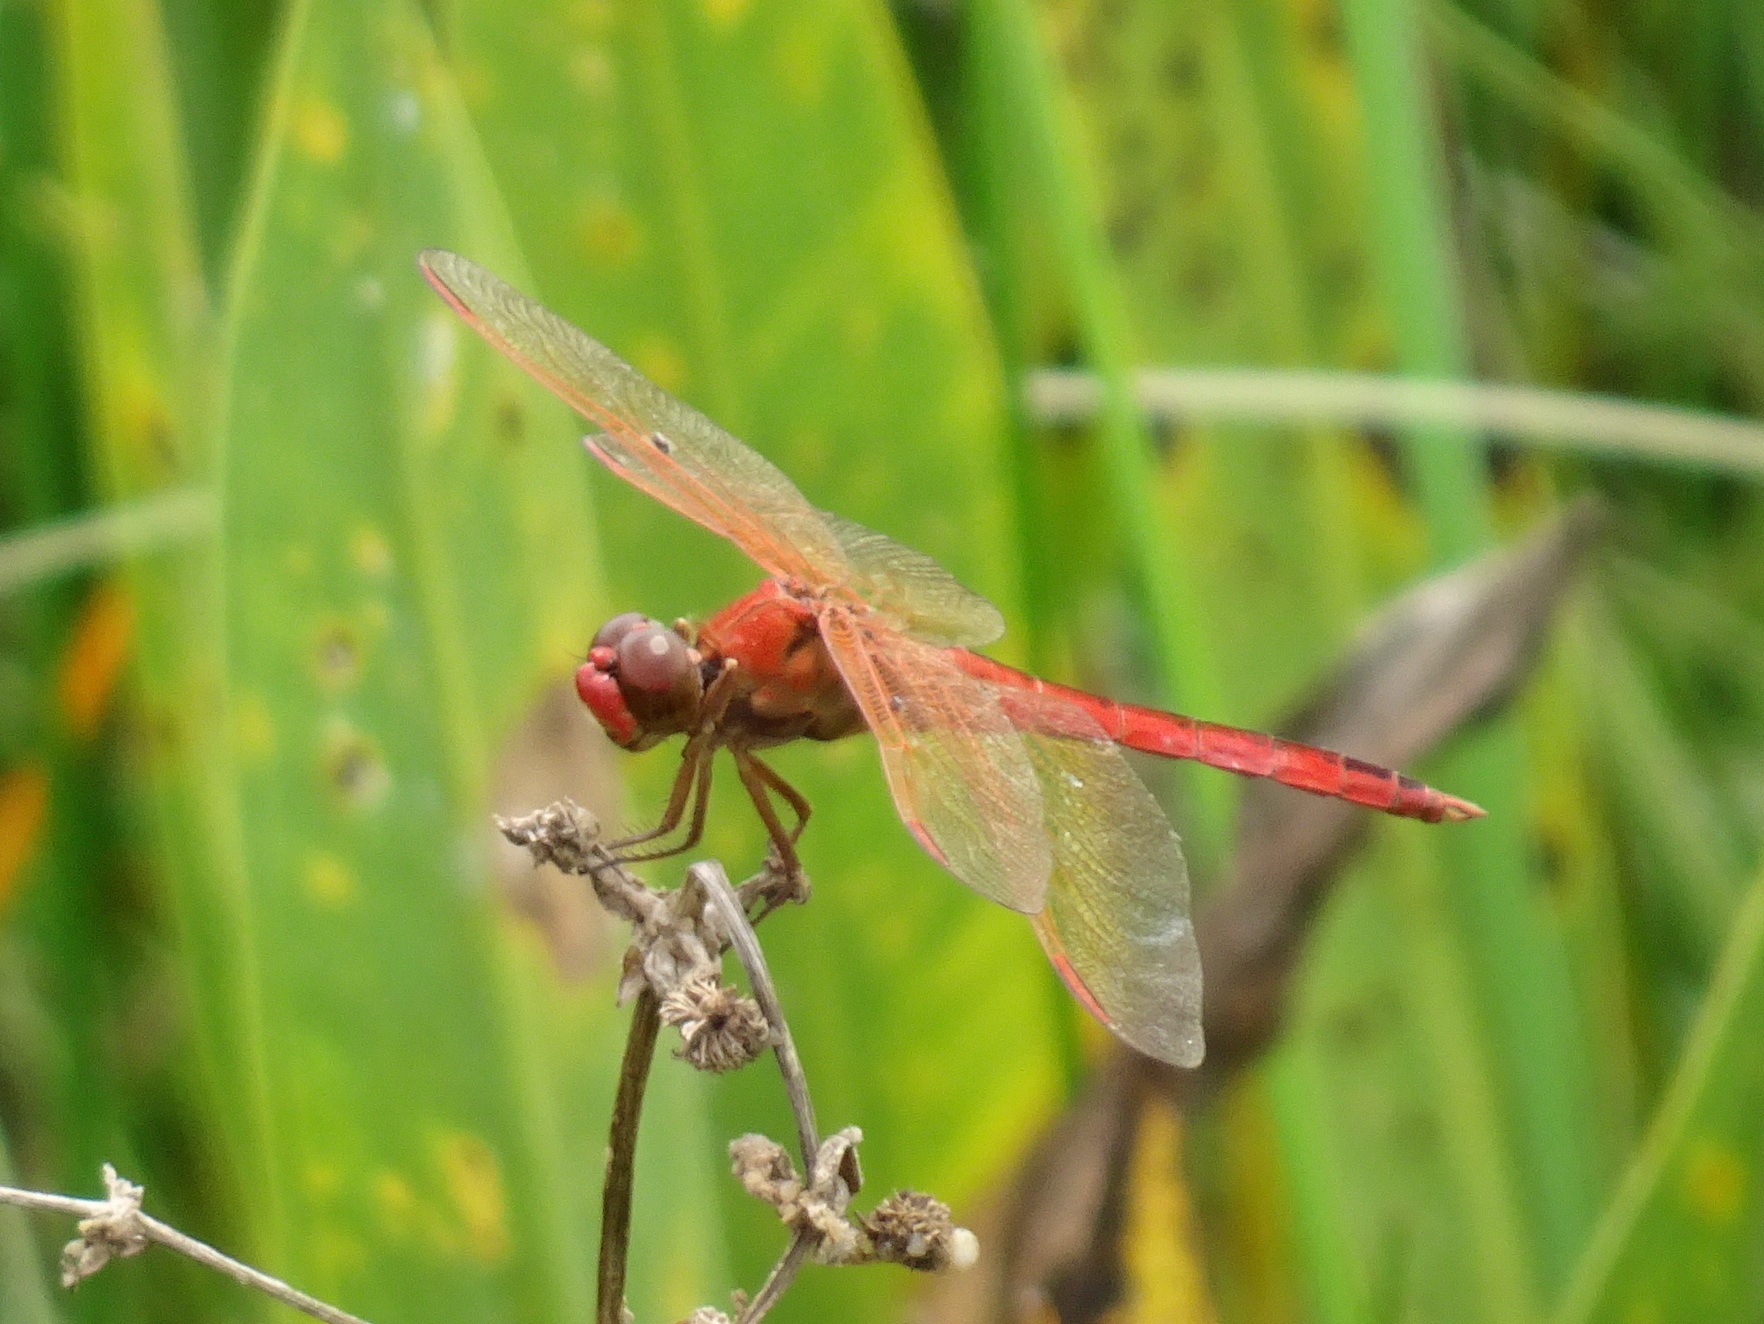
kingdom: Animalia
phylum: Arthropoda
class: Insecta
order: Odonata
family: Libellulidae
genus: Libellula
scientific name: Libellula needhami
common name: Needham's skimmer
